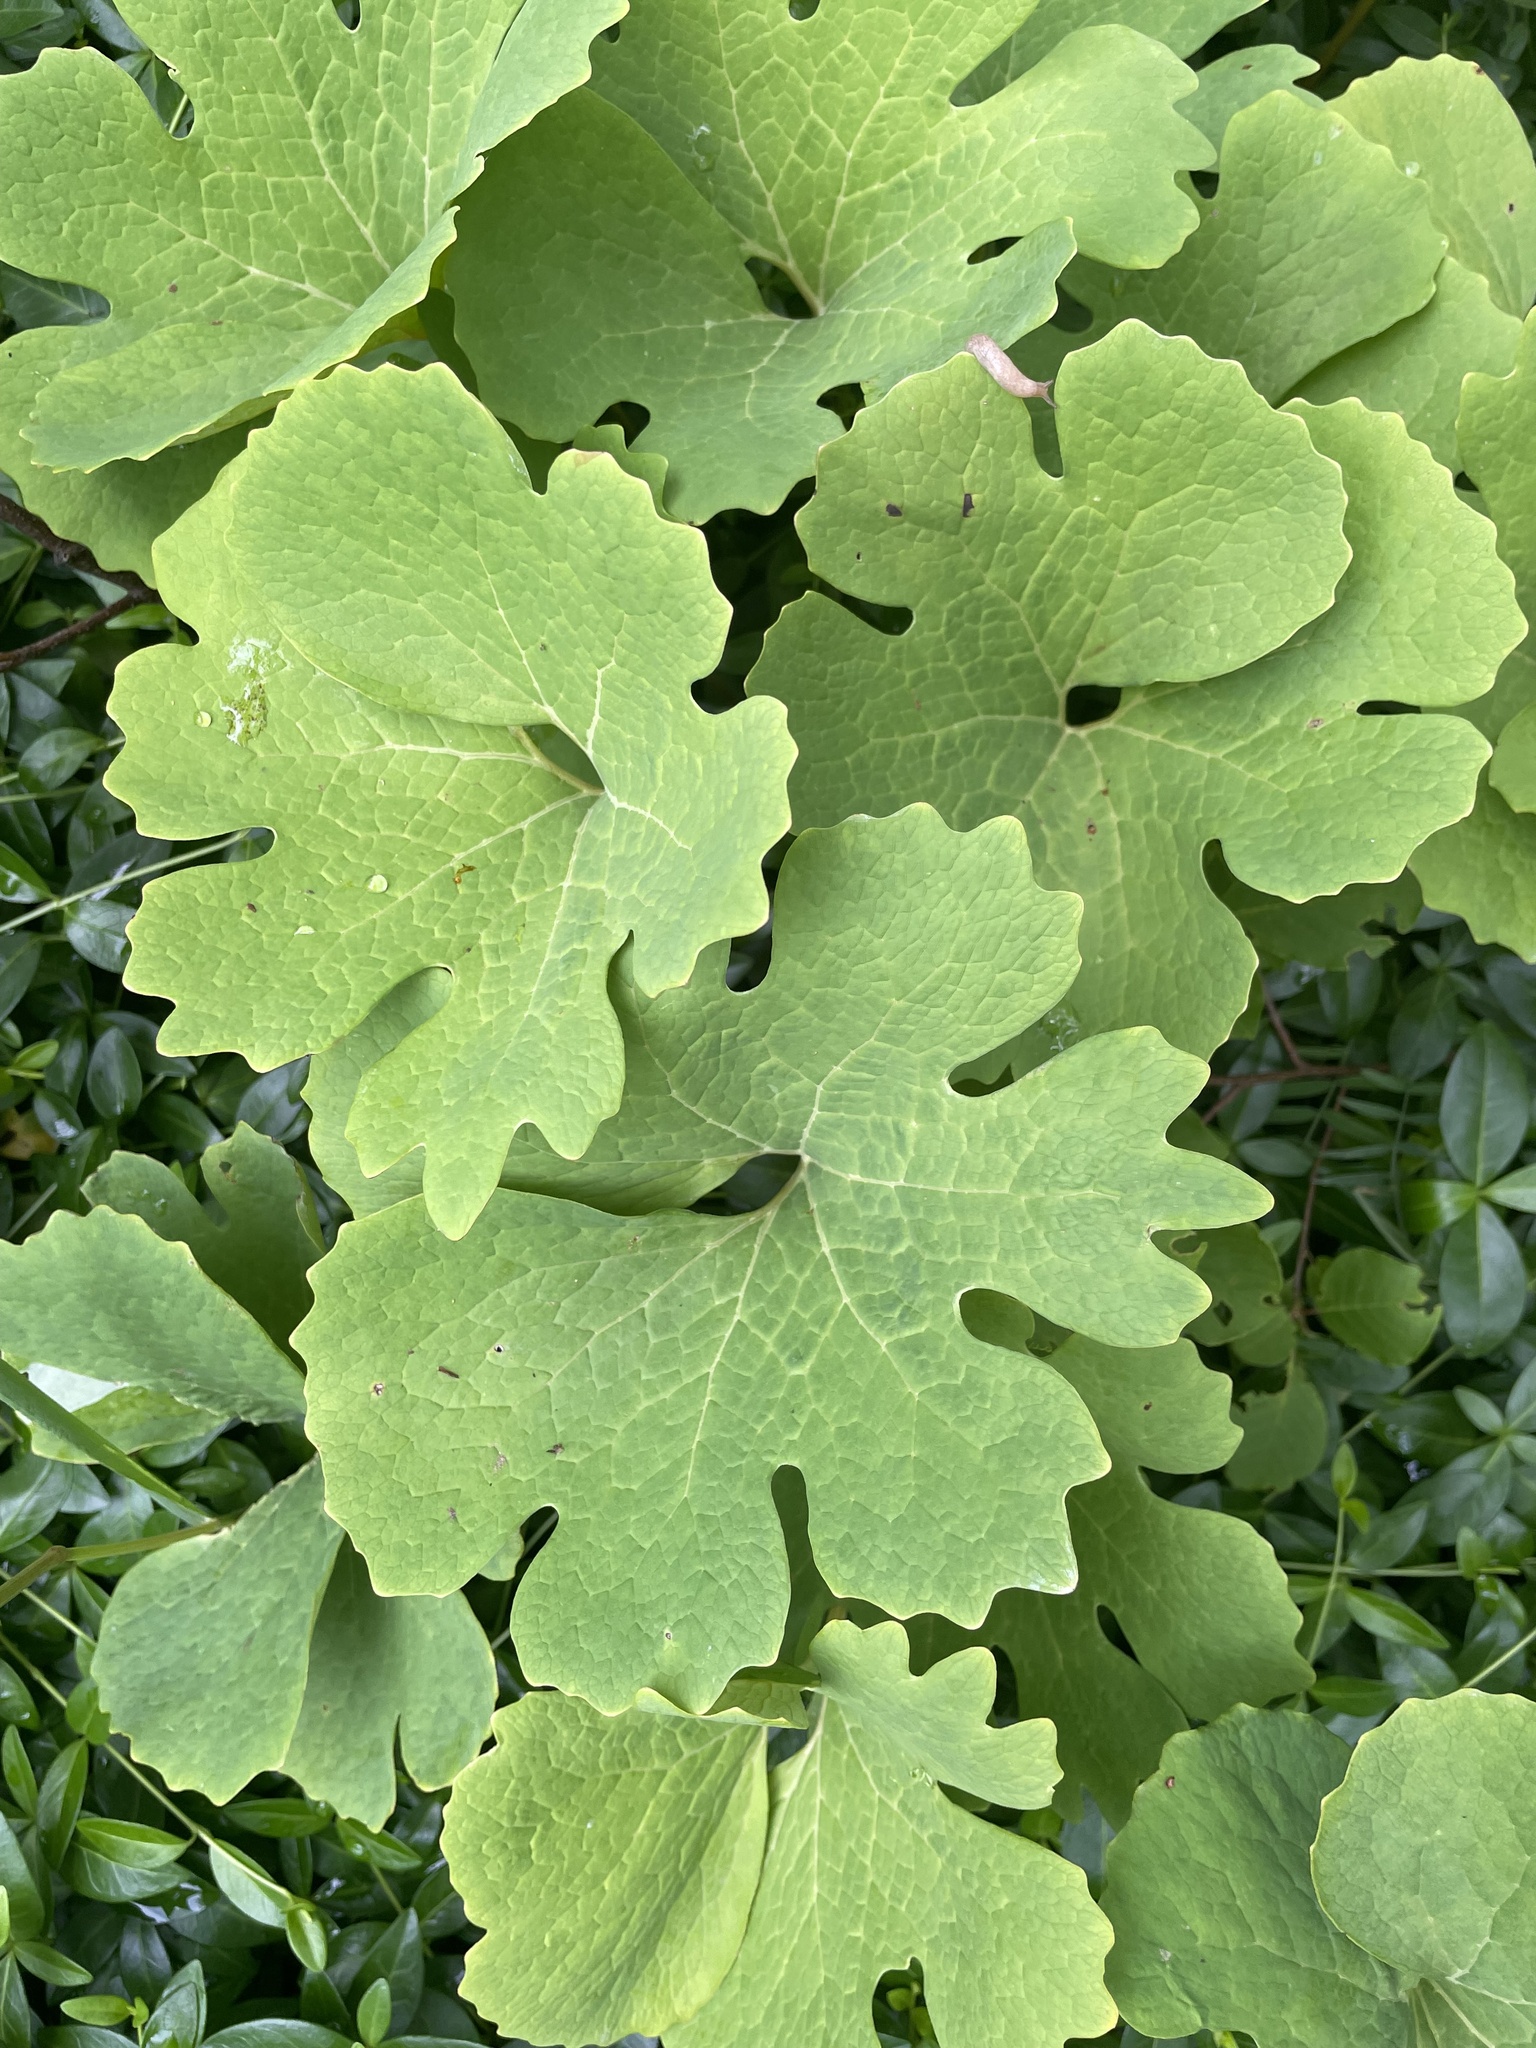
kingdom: Plantae
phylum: Tracheophyta
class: Magnoliopsida
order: Ranunculales
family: Papaveraceae
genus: Sanguinaria
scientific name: Sanguinaria canadensis
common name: Bloodroot
